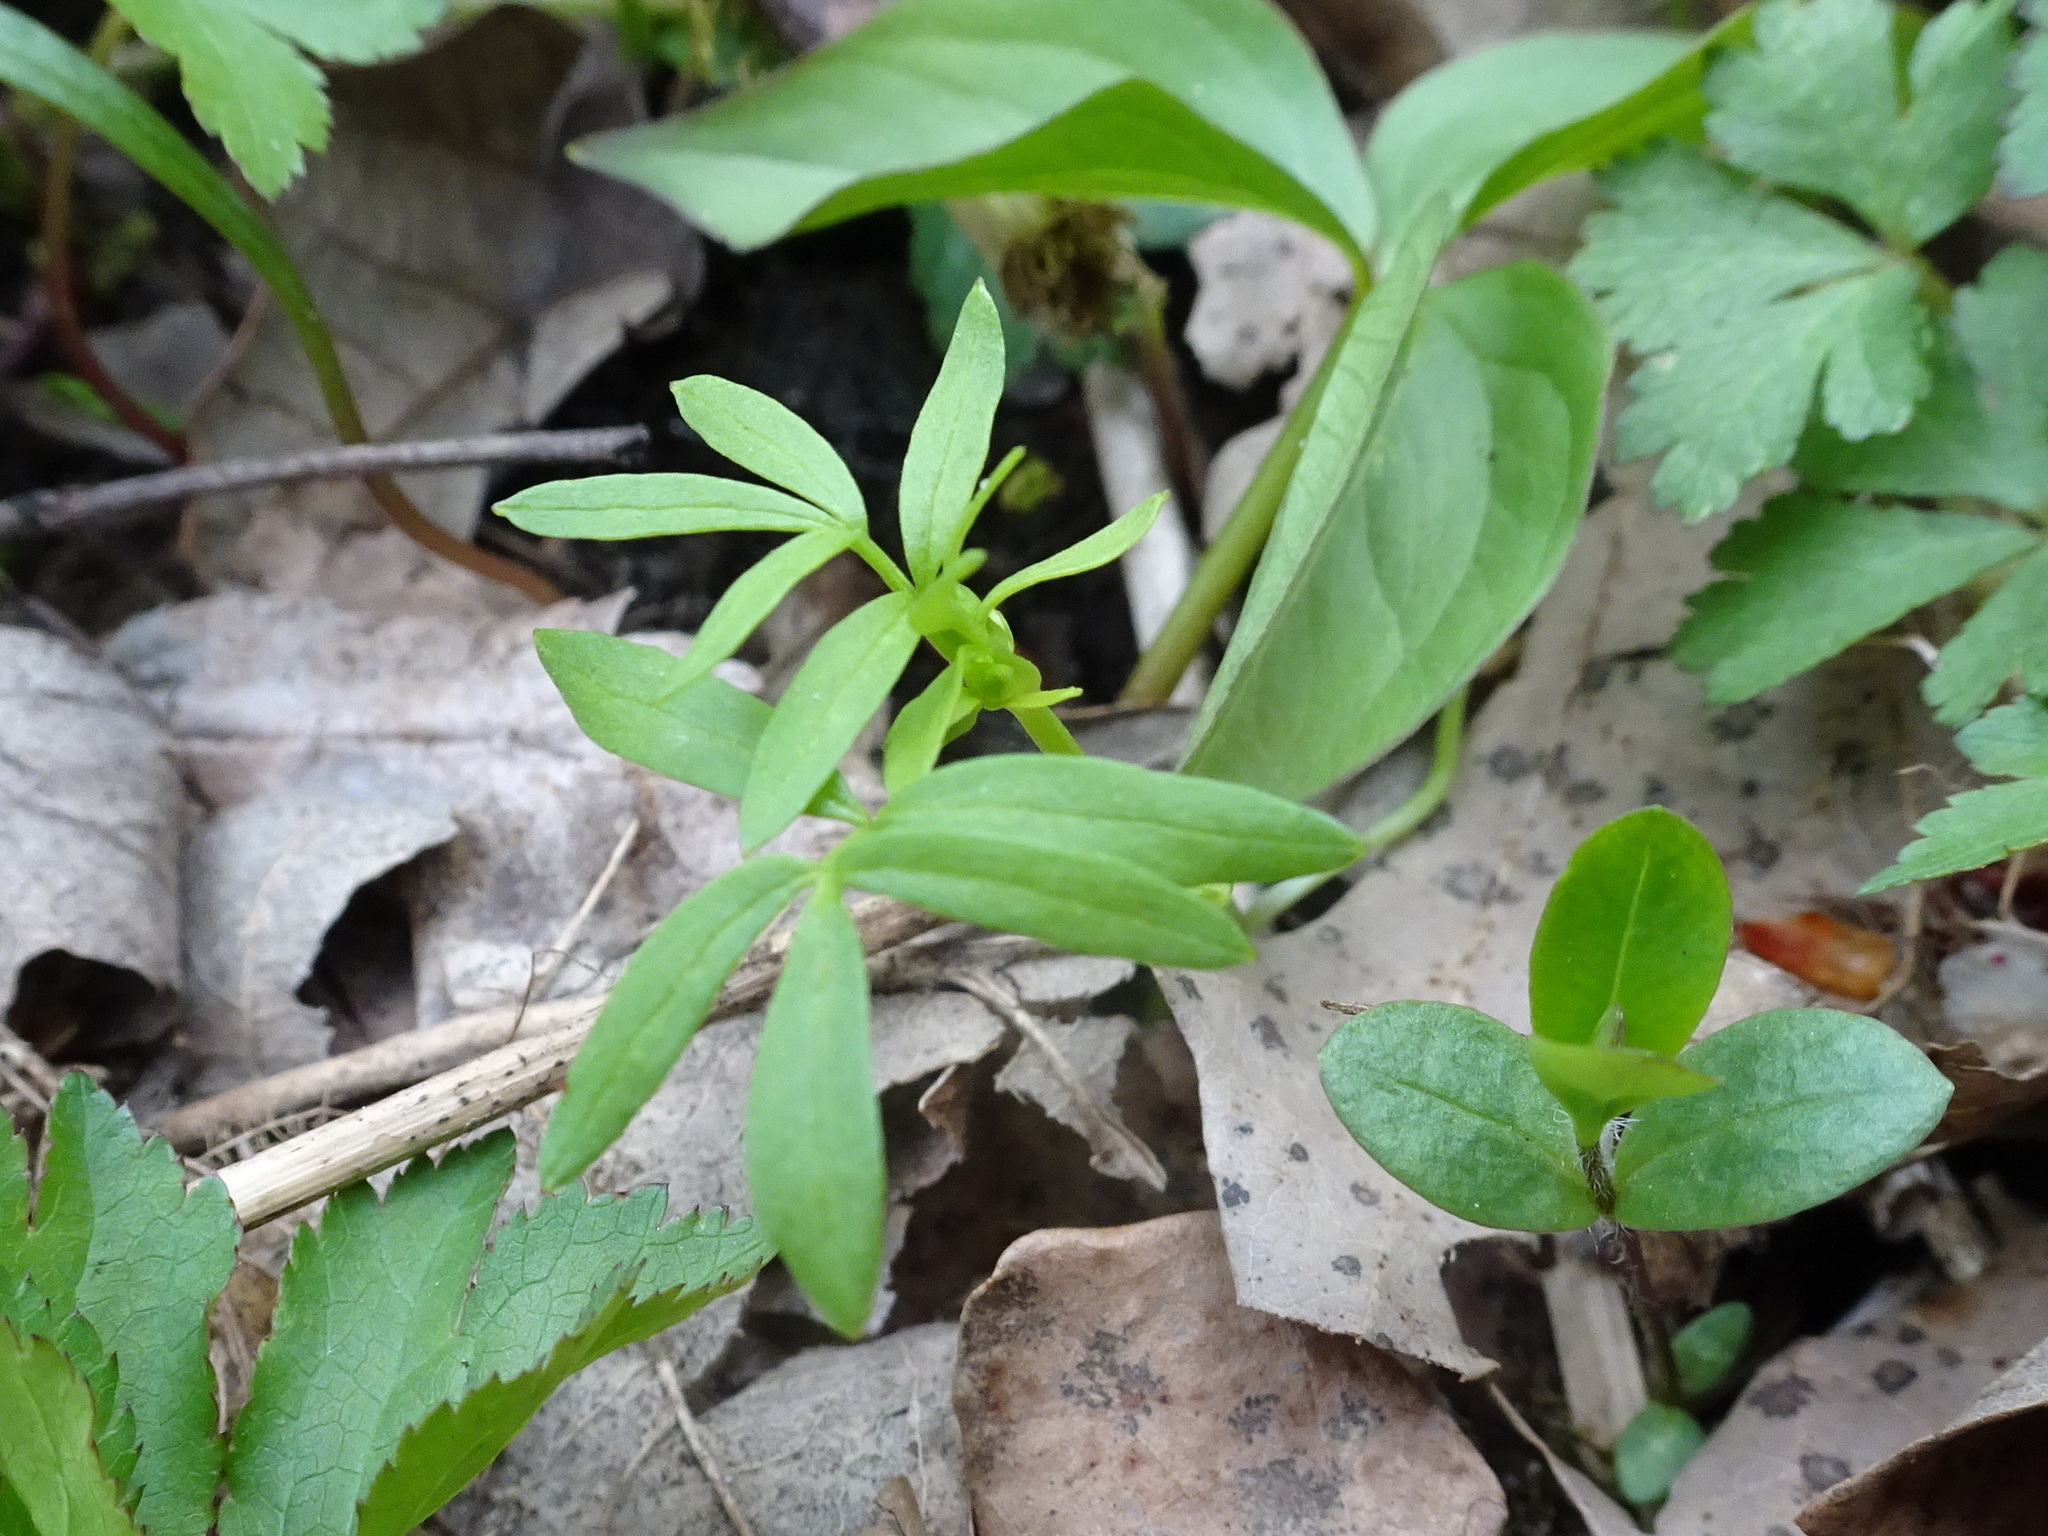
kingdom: Plantae
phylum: Tracheophyta
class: Magnoliopsida
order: Brassicales
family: Limnanthaceae
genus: Floerkea
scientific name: Floerkea proserpinacoides
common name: False mermaid
